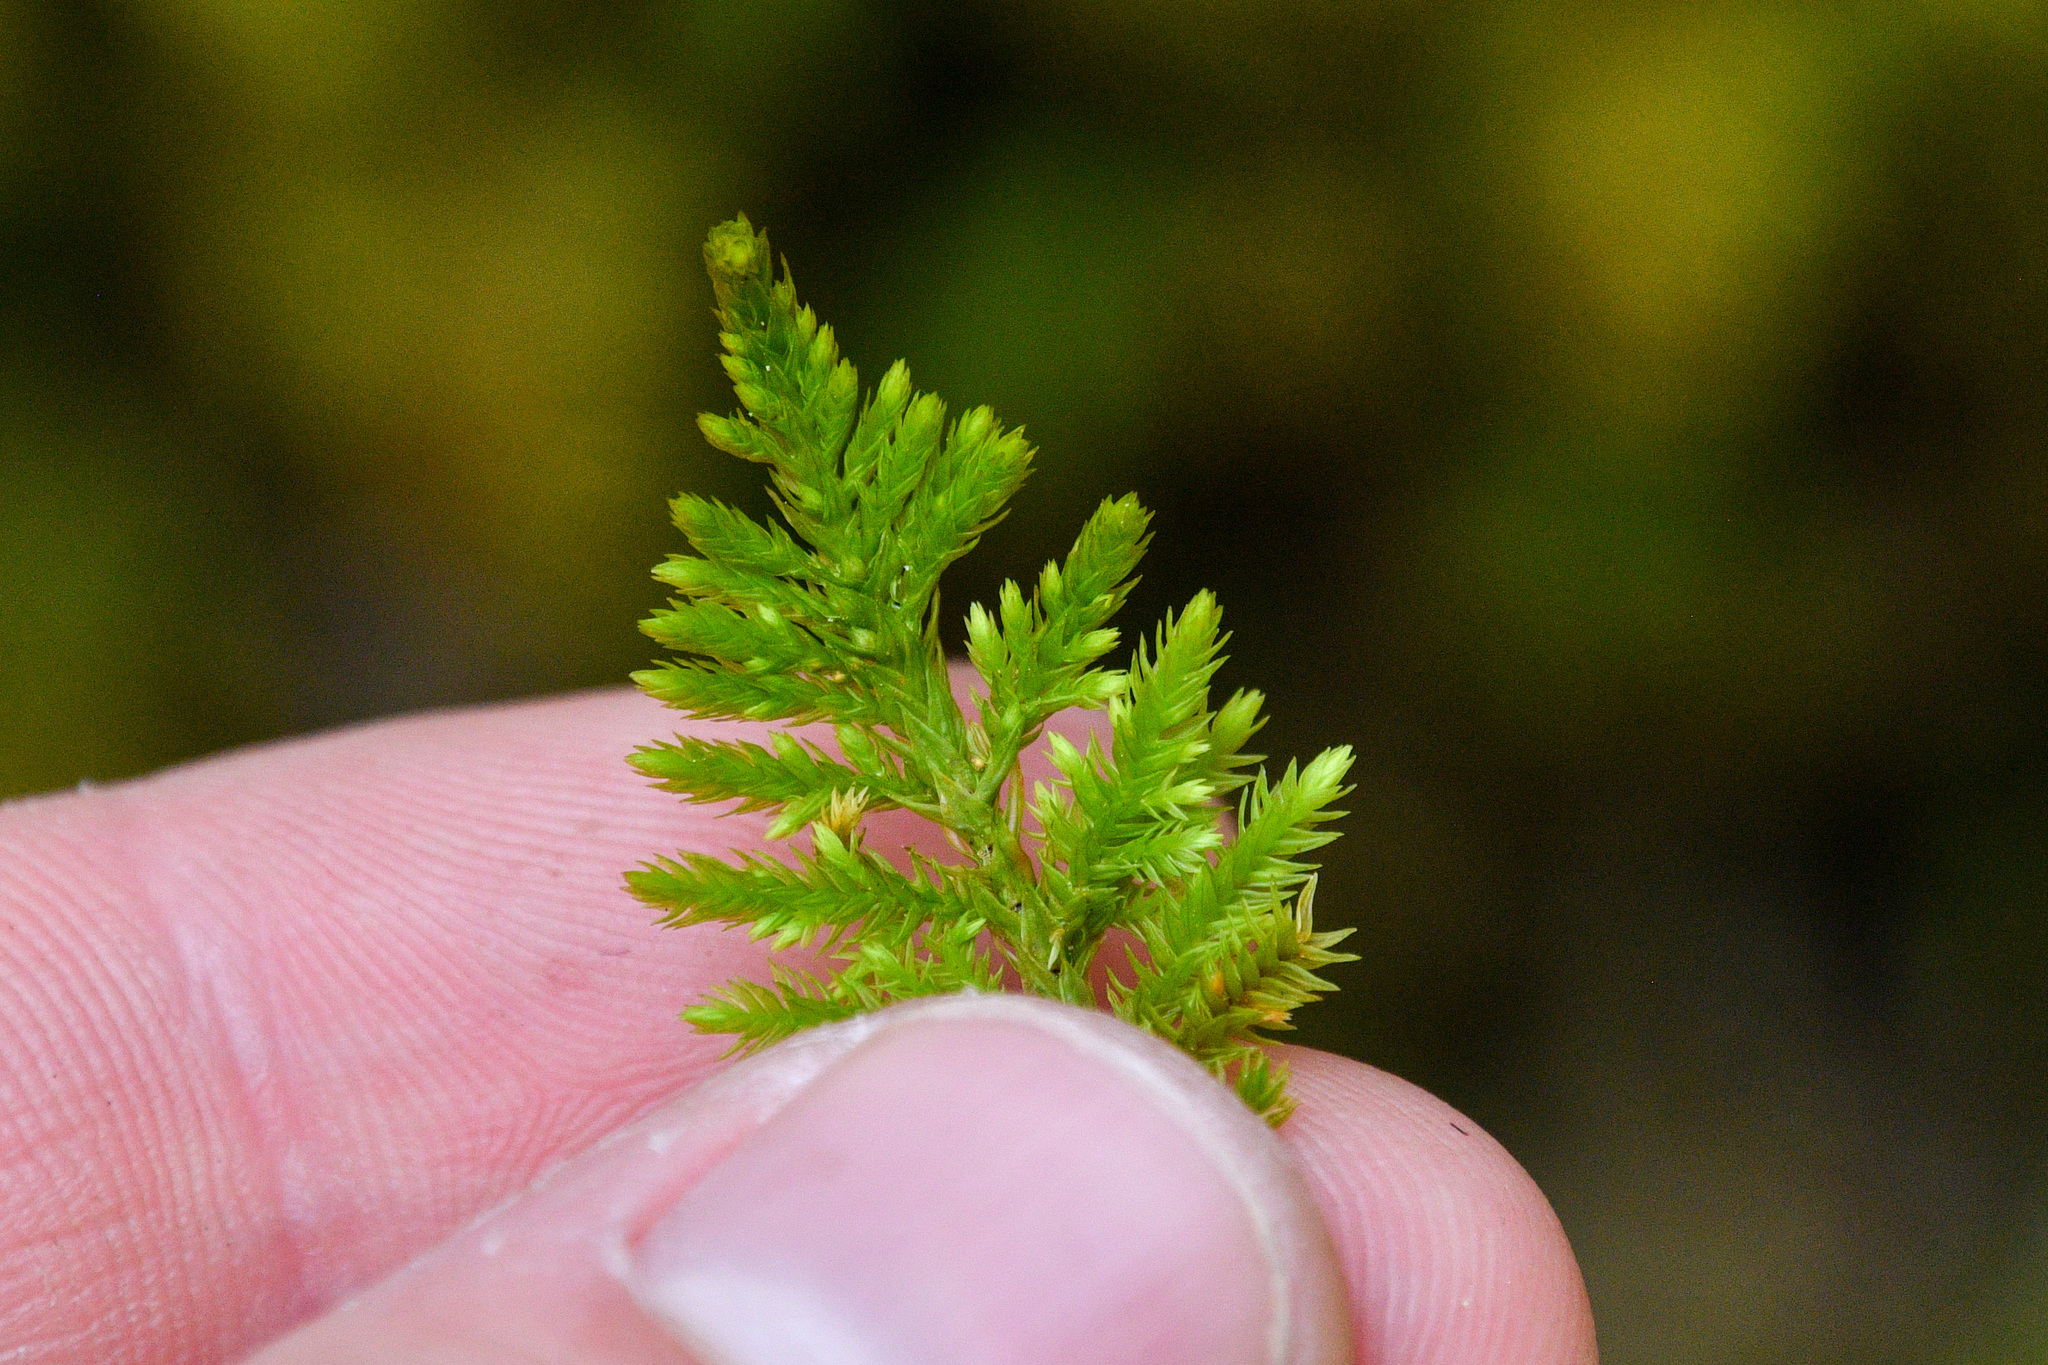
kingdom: Plantae
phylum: Bryophyta
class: Bryopsida
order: Hypnales
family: Cryphaeaceae
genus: Dendroalsia
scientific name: Dendroalsia abietina
